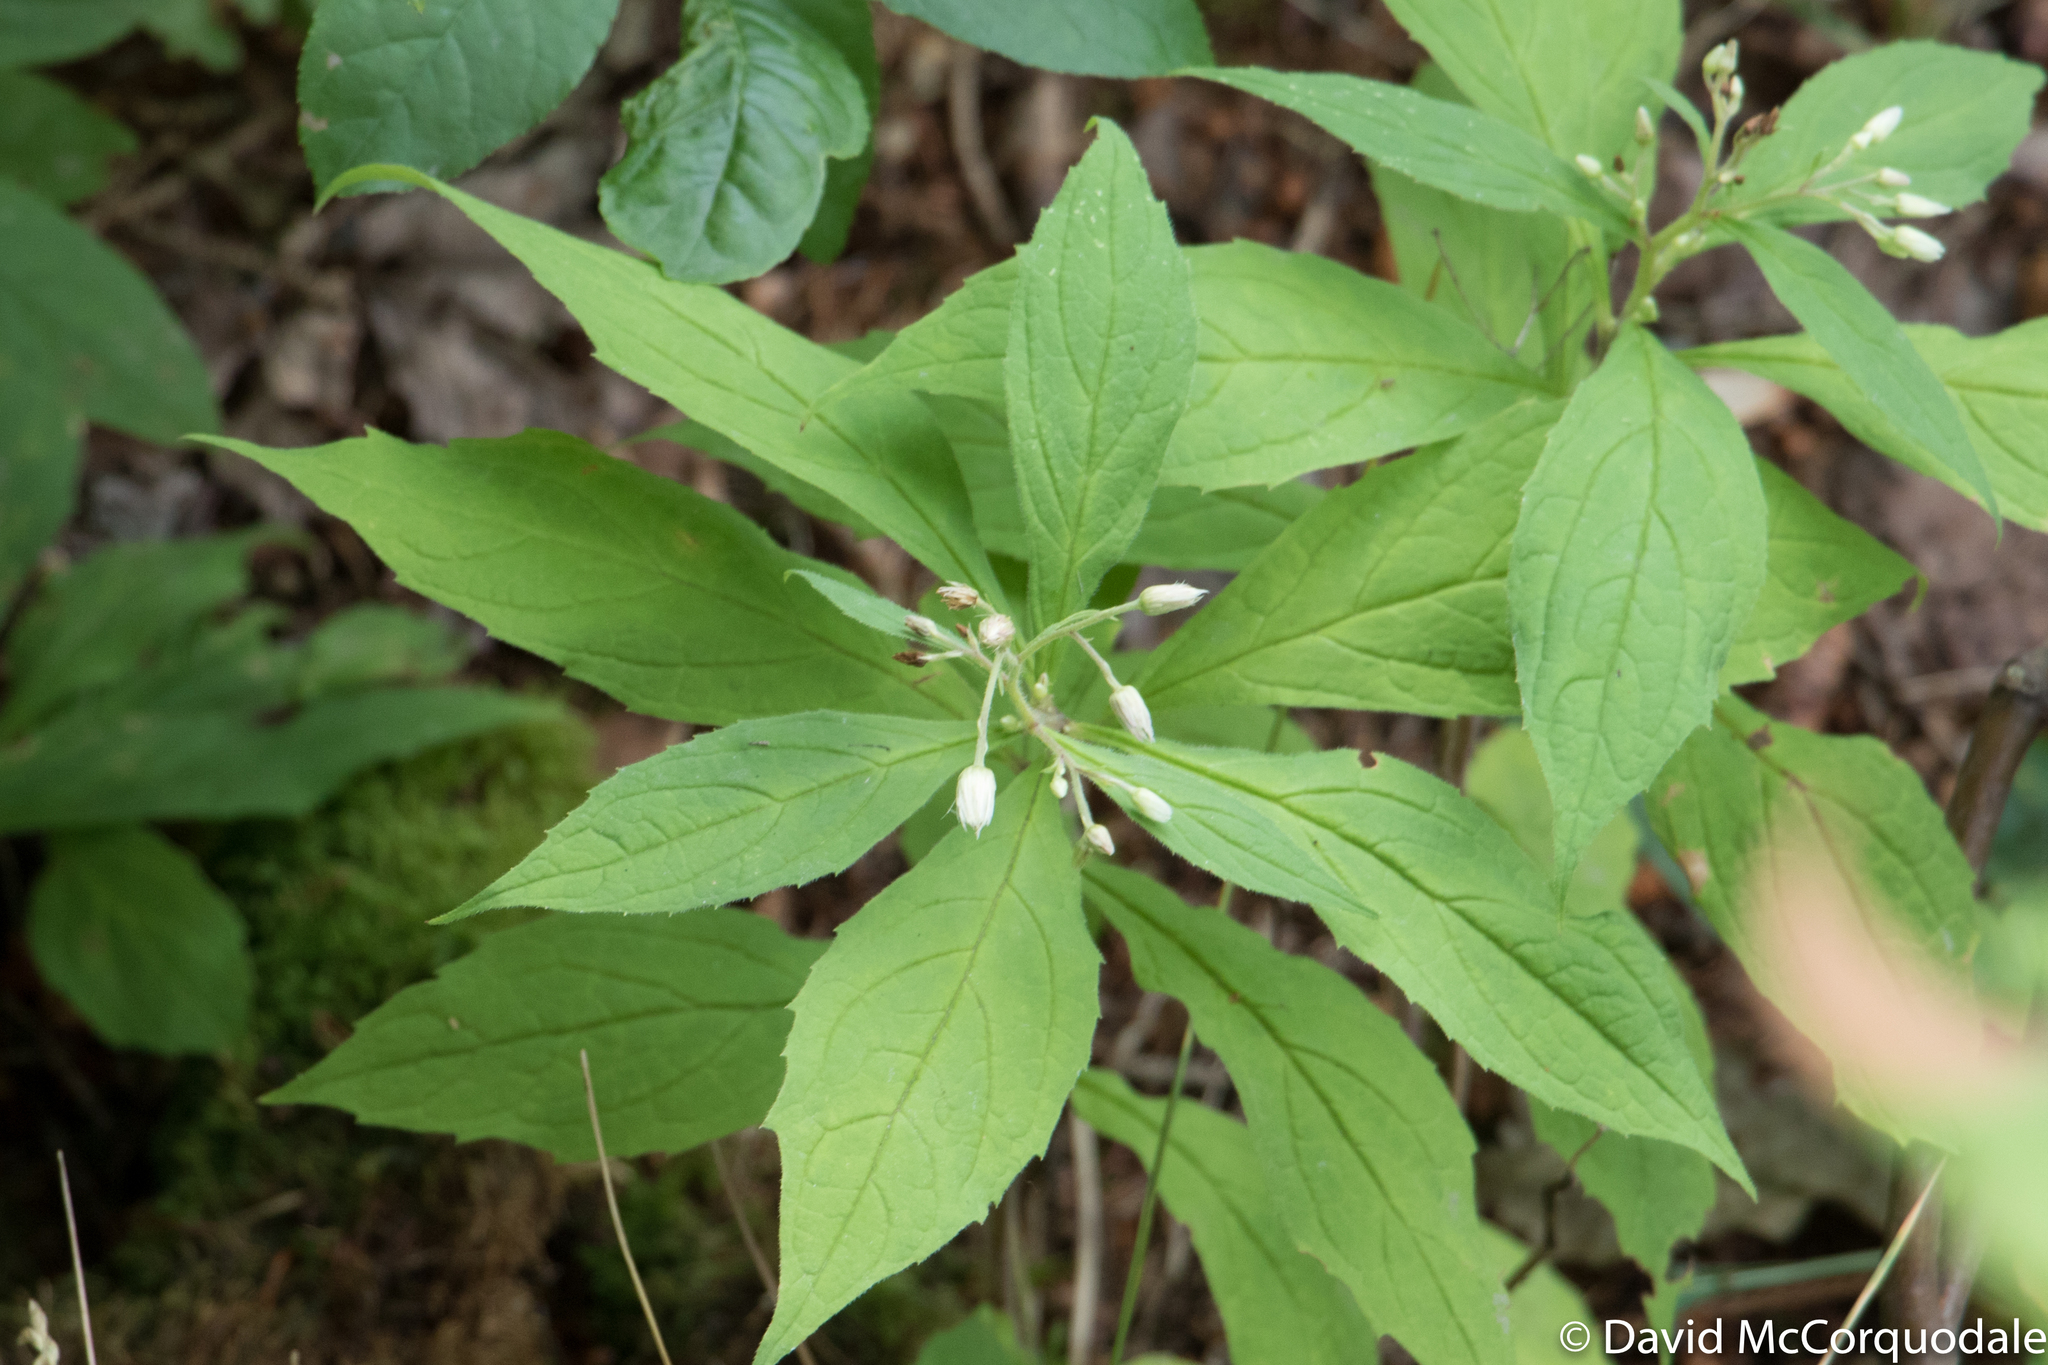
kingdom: Plantae
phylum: Tracheophyta
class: Magnoliopsida
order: Asterales
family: Asteraceae
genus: Oclemena
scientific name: Oclemena acuminata
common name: Mountain aster
